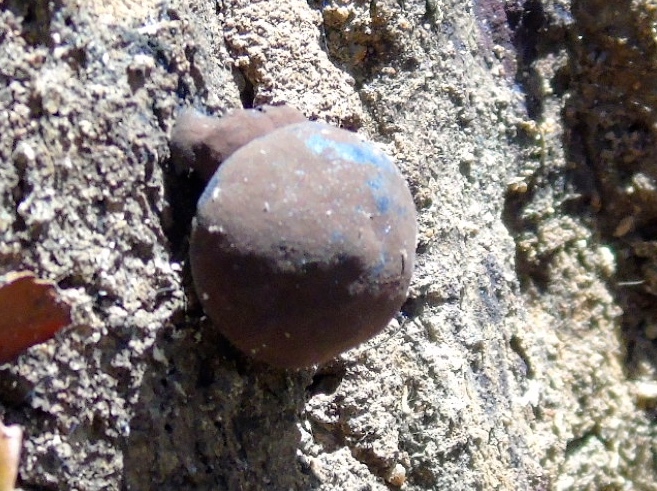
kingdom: Fungi
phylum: Ascomycota
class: Sordariomycetes
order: Xylariales
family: Hypoxylaceae
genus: Daldinia
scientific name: Daldinia
